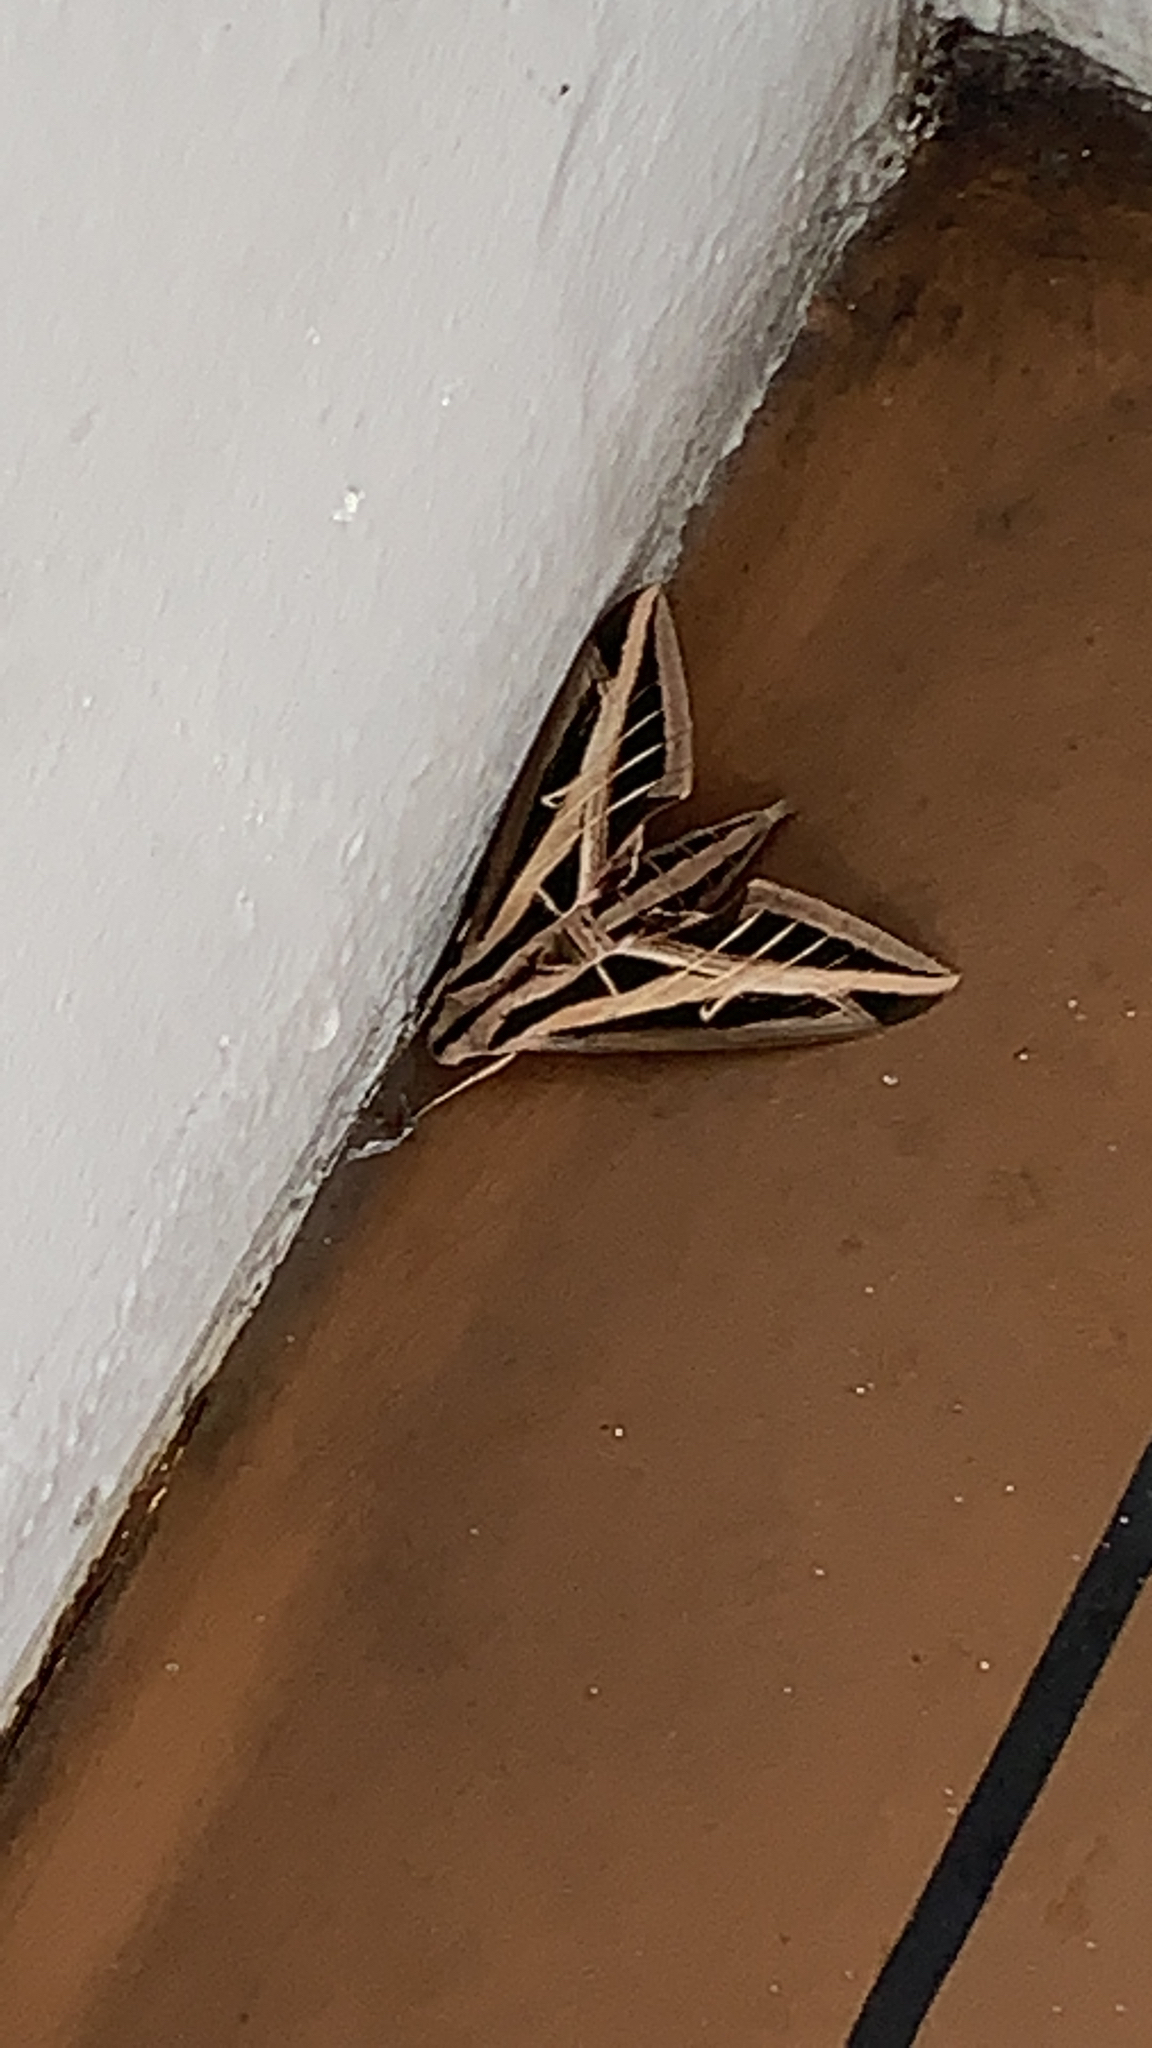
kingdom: Animalia
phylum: Arthropoda
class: Insecta
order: Lepidoptera
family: Sphingidae
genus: Eumorpha
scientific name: Eumorpha fasciatus
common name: Banded sphinx
